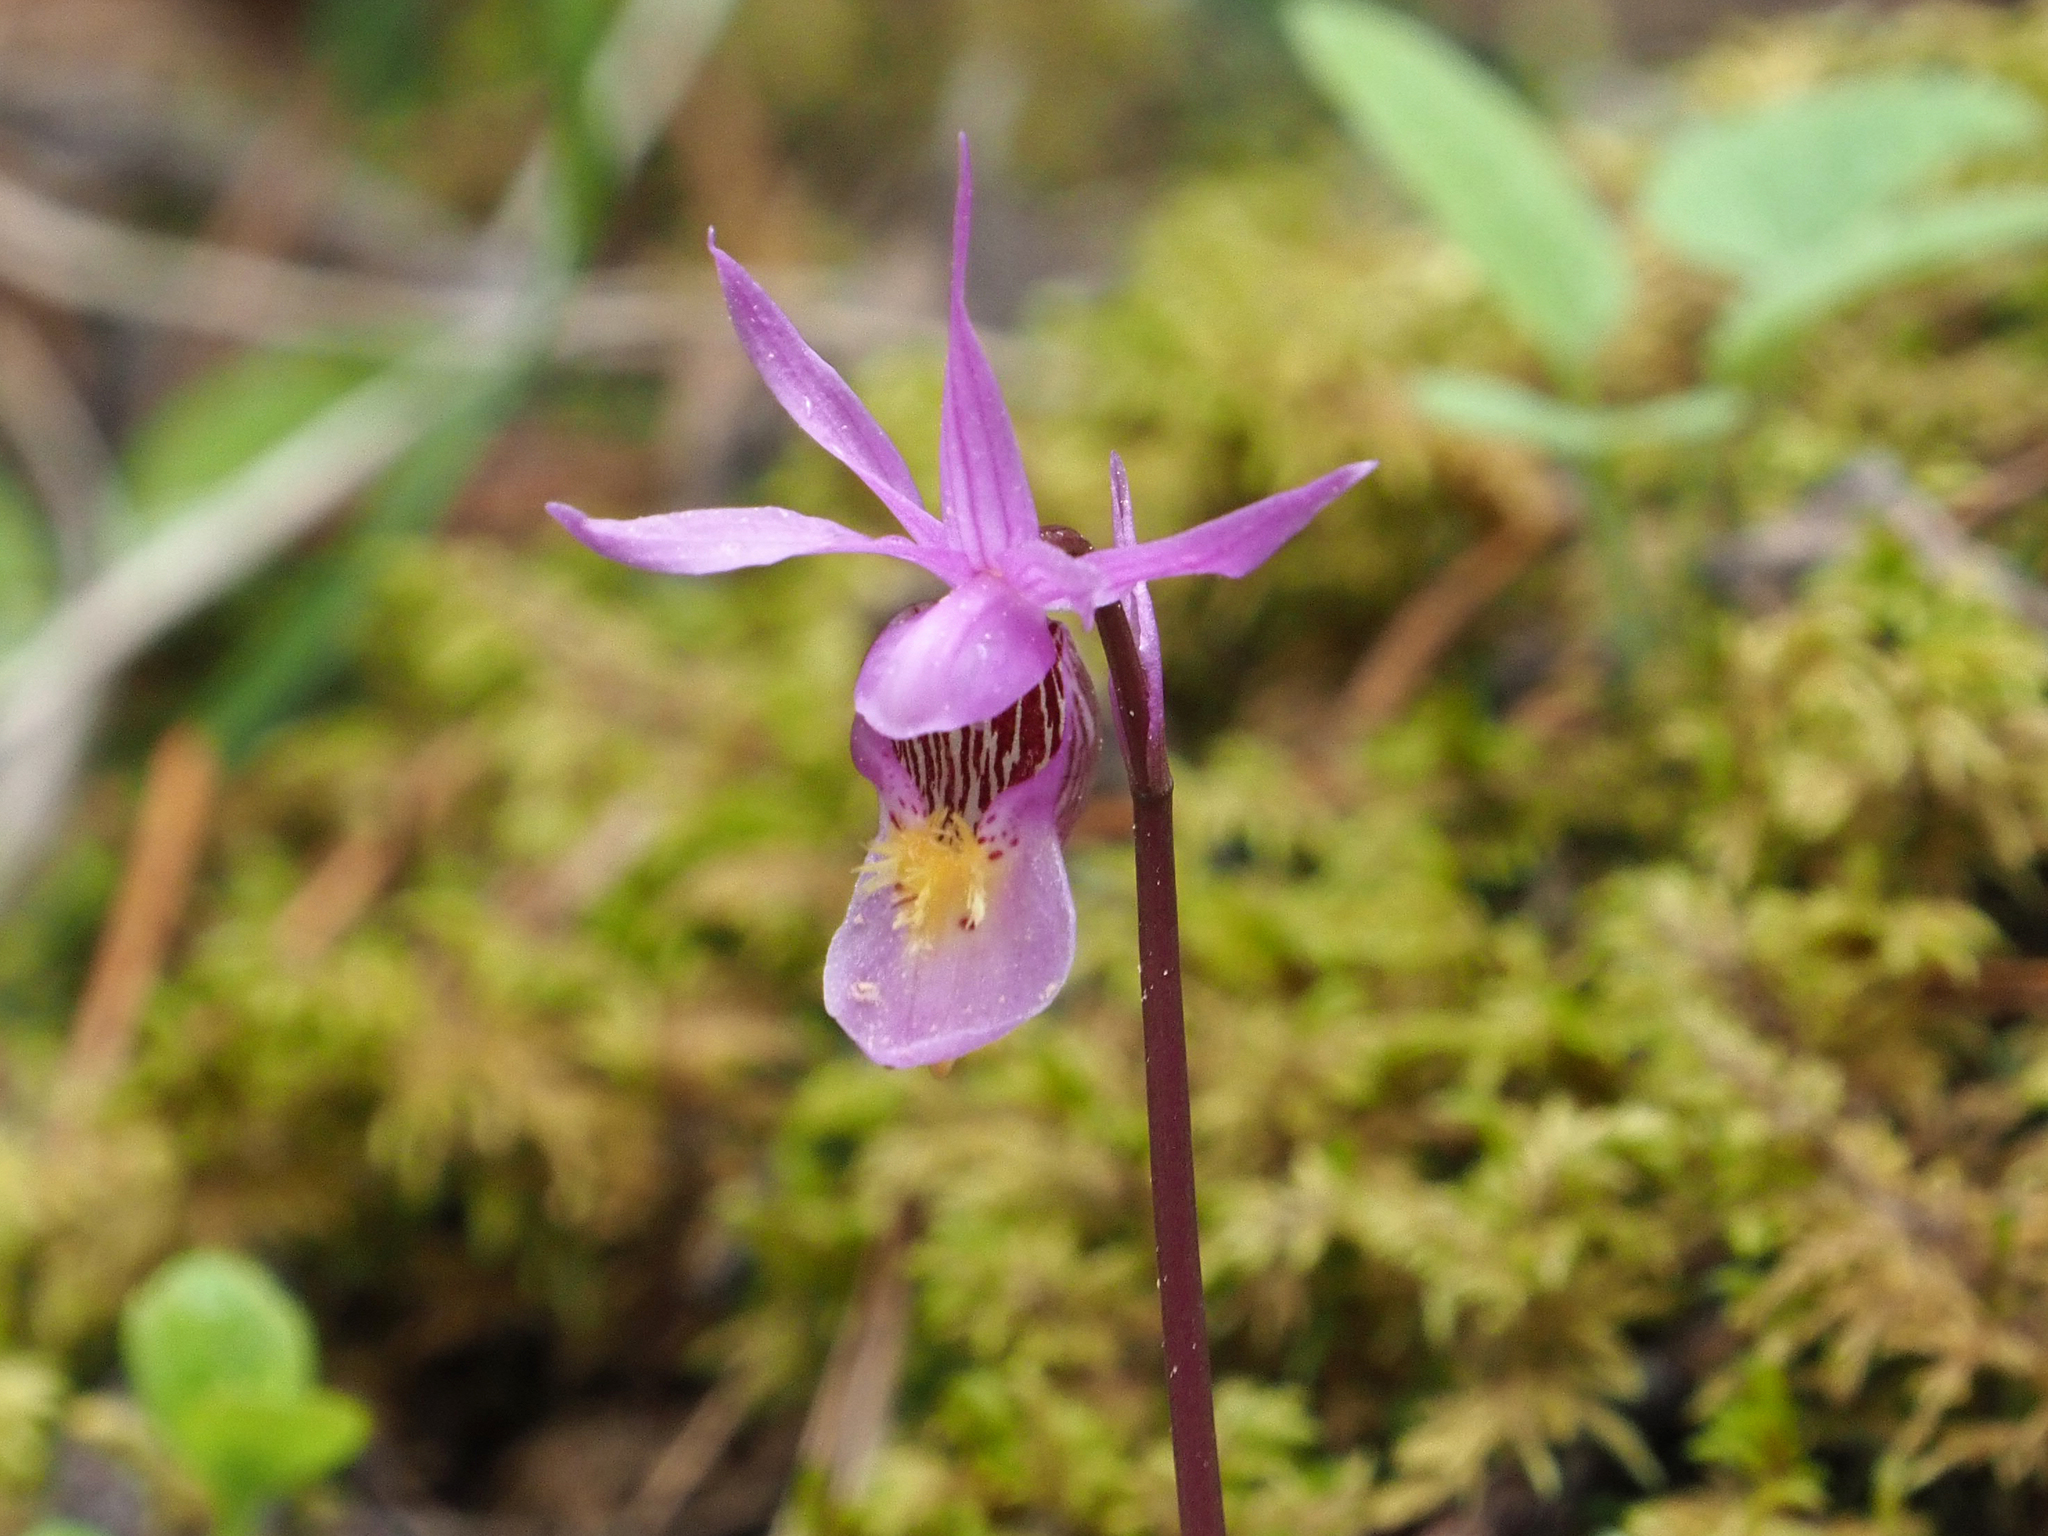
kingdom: Plantae
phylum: Tracheophyta
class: Liliopsida
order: Asparagales
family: Orchidaceae
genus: Calypso
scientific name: Calypso bulbosa
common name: Calypso
